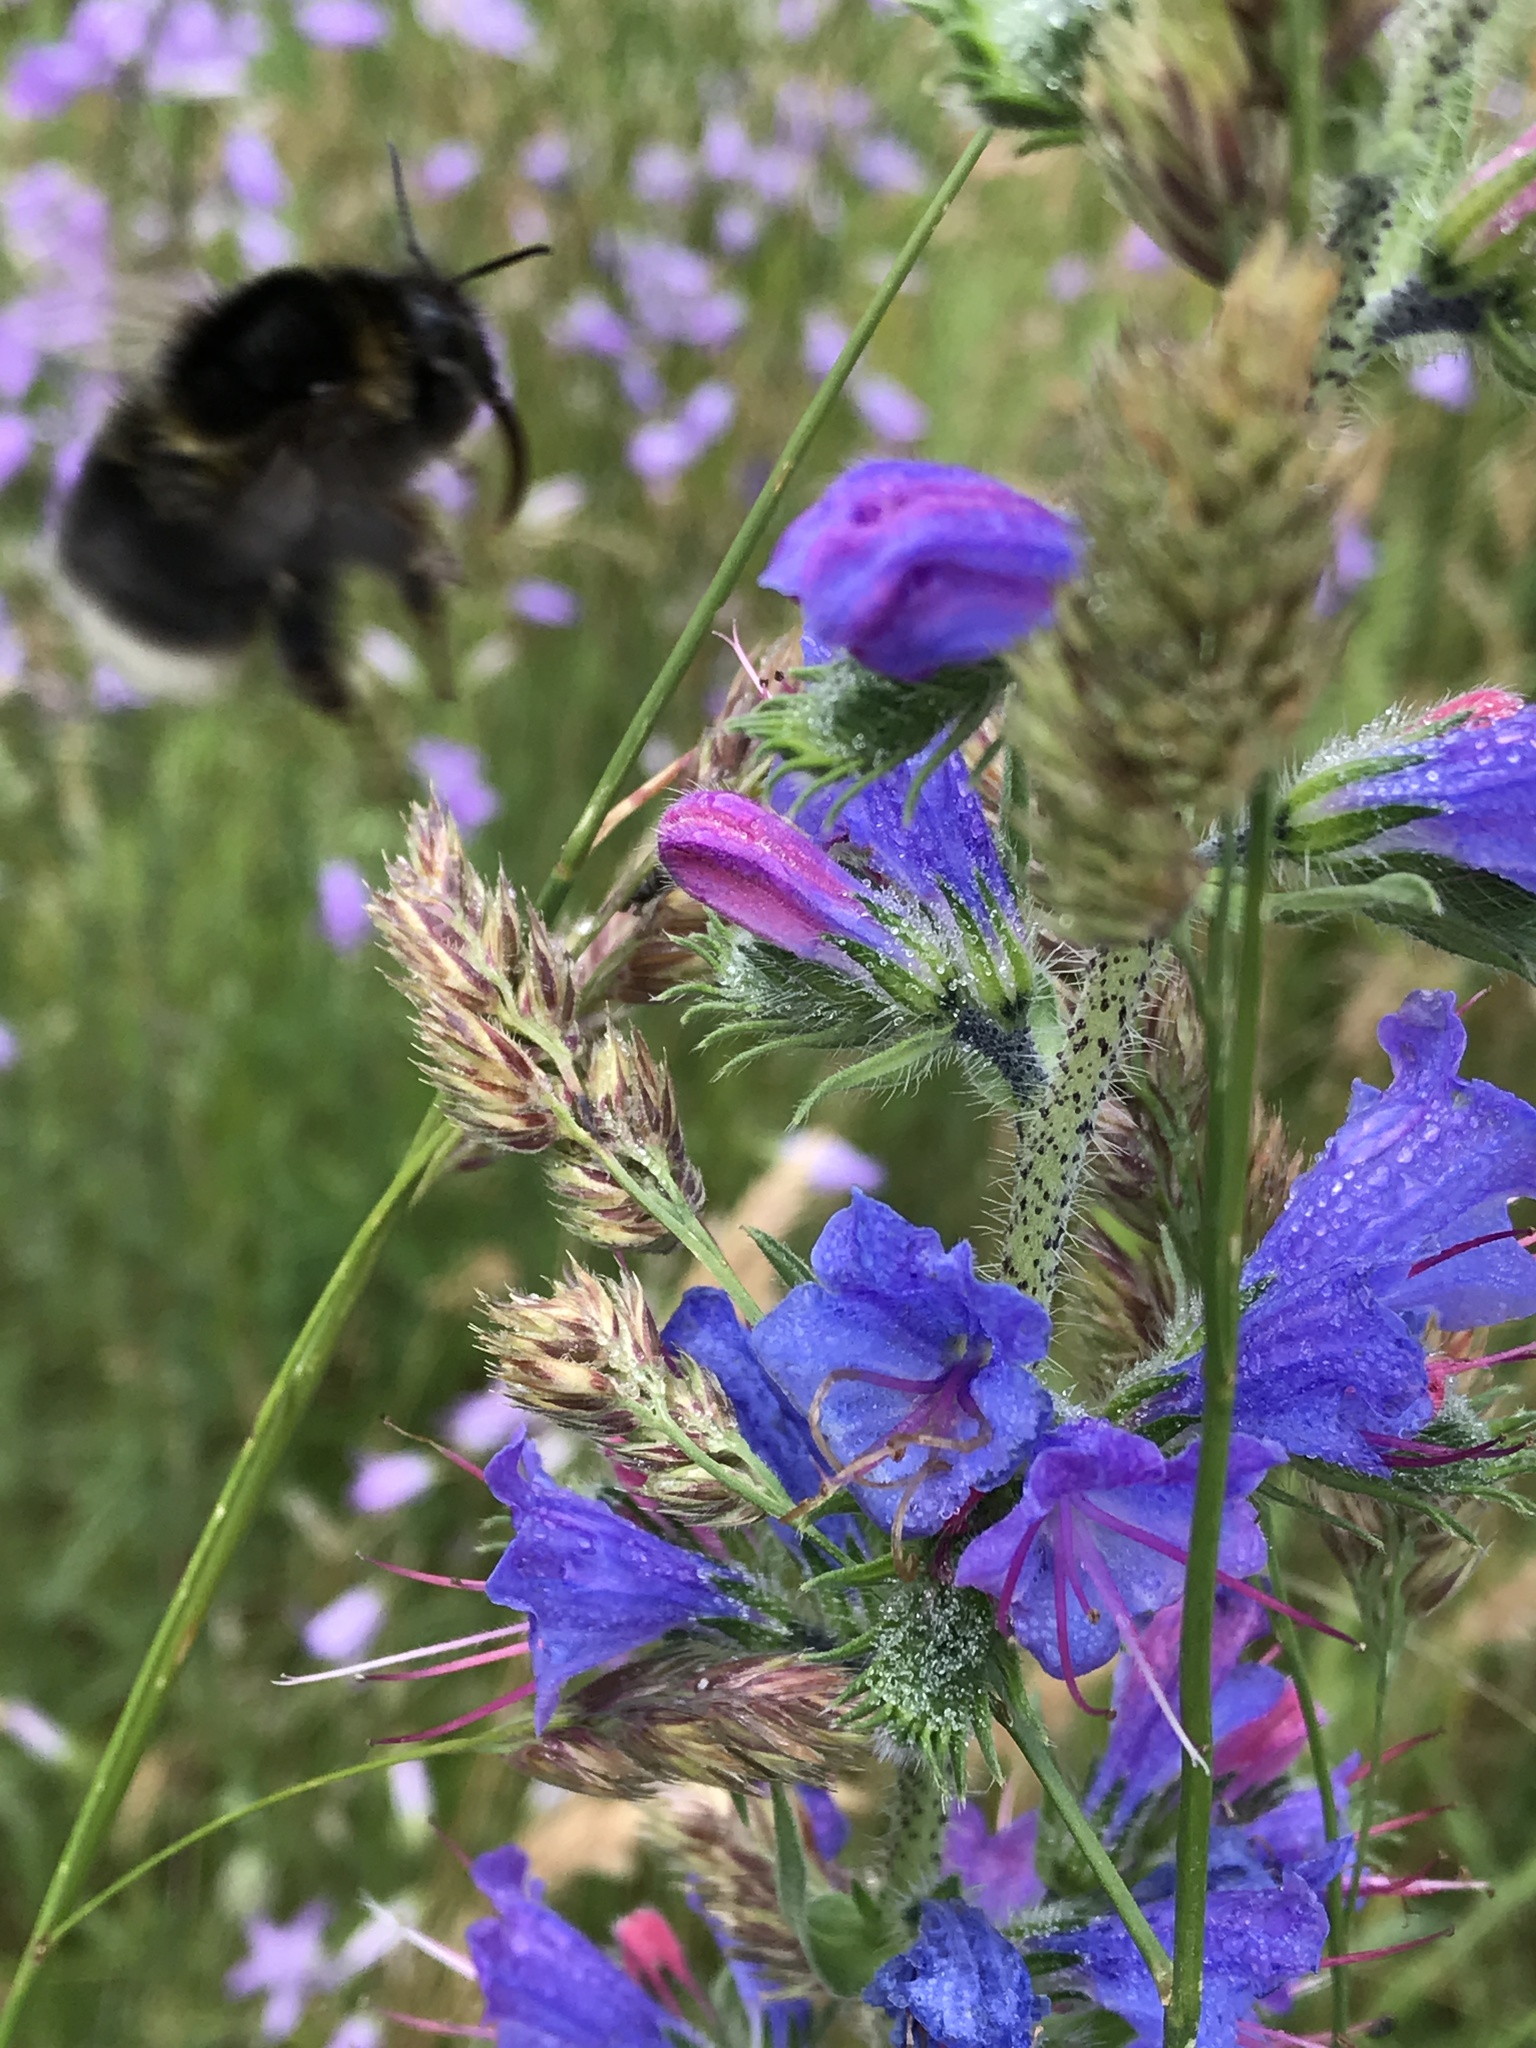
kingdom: Animalia
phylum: Arthropoda
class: Insecta
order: Hymenoptera
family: Apidae
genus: Bombus
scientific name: Bombus hortorum
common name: Garden bumblebee
